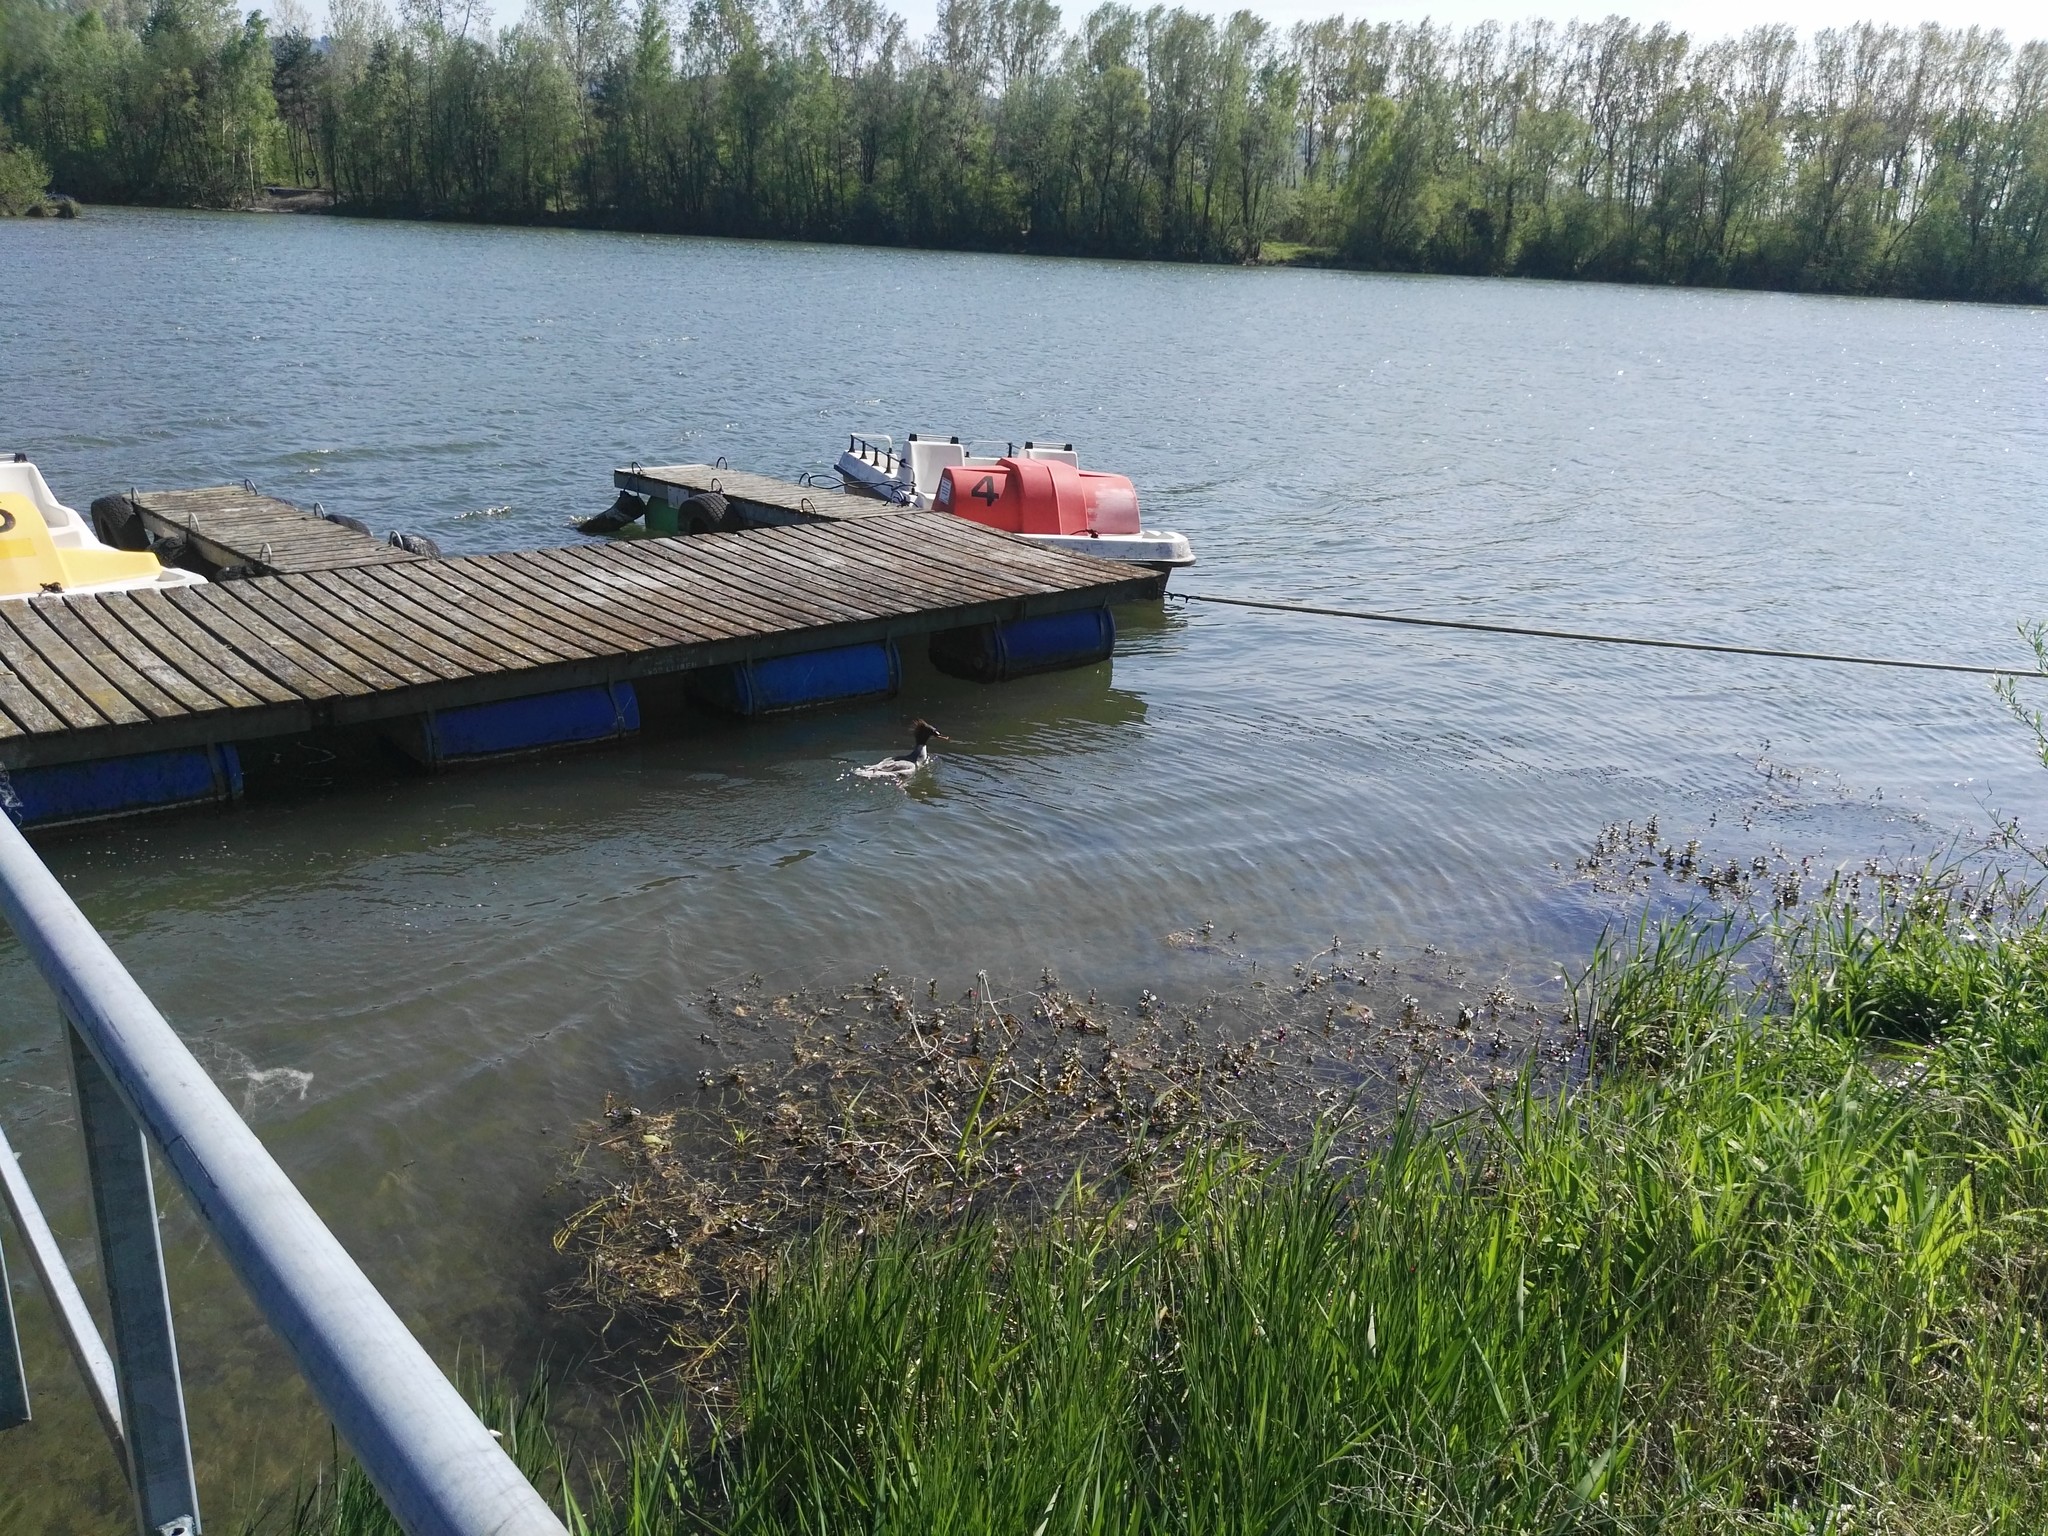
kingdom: Animalia
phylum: Chordata
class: Aves
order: Anseriformes
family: Anatidae
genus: Mergus
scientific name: Mergus merganser
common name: Common merganser
